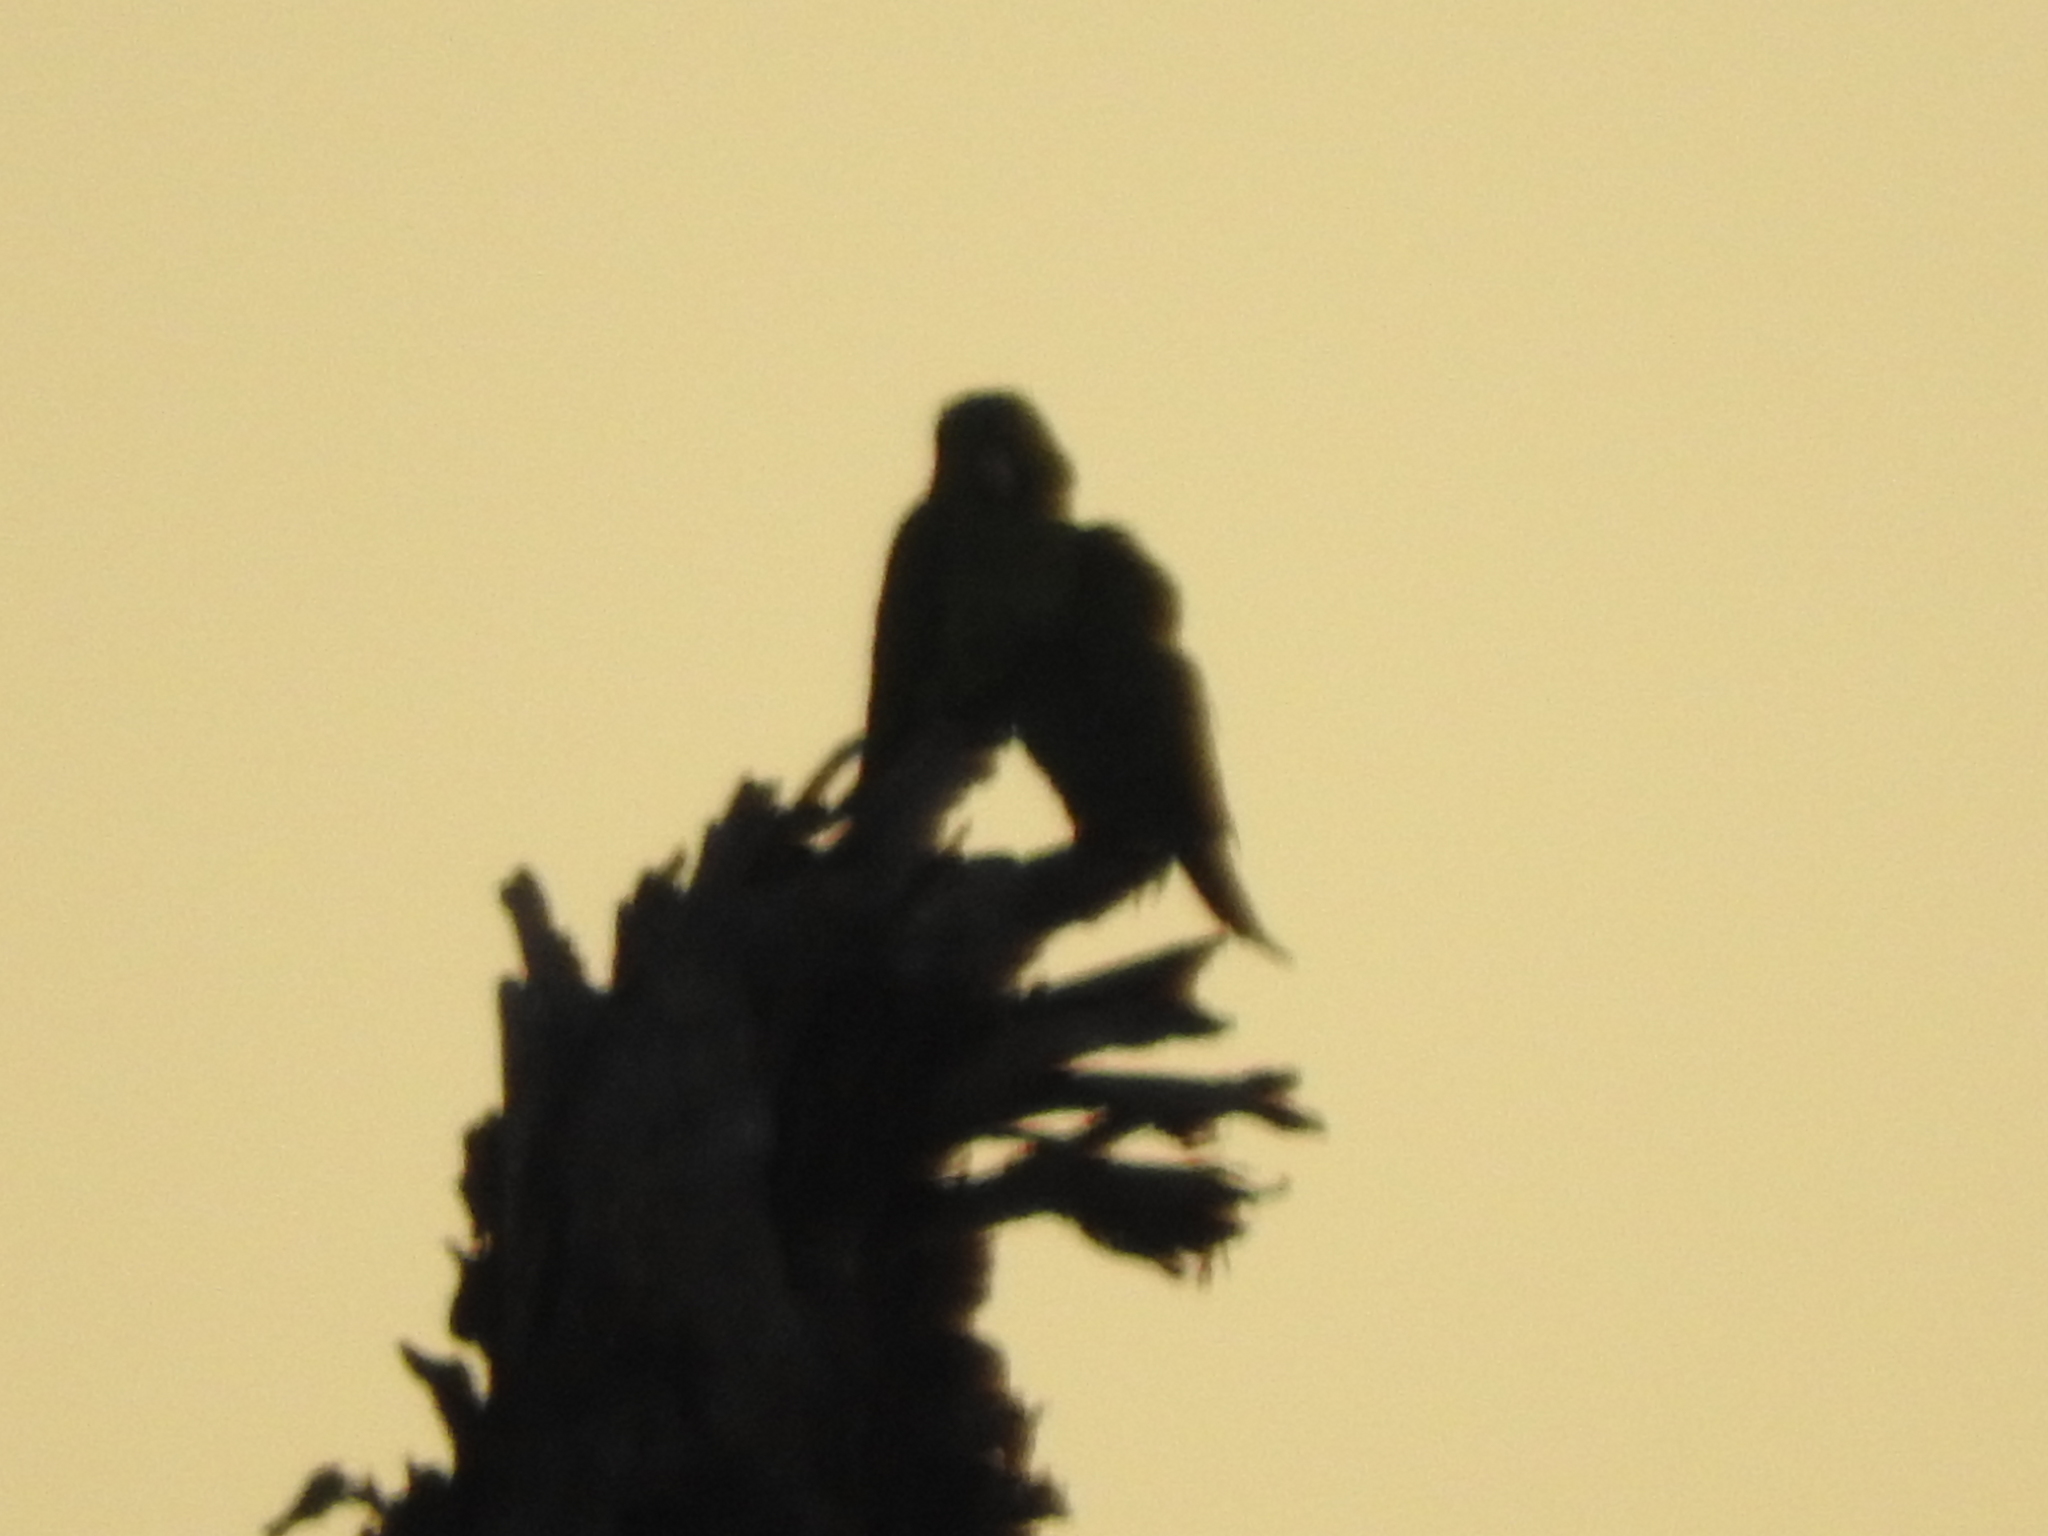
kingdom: Animalia
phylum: Chordata
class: Aves
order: Psittaciformes
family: Psittacidae
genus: Aratinga
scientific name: Aratinga holochlora
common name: Green parakeet
